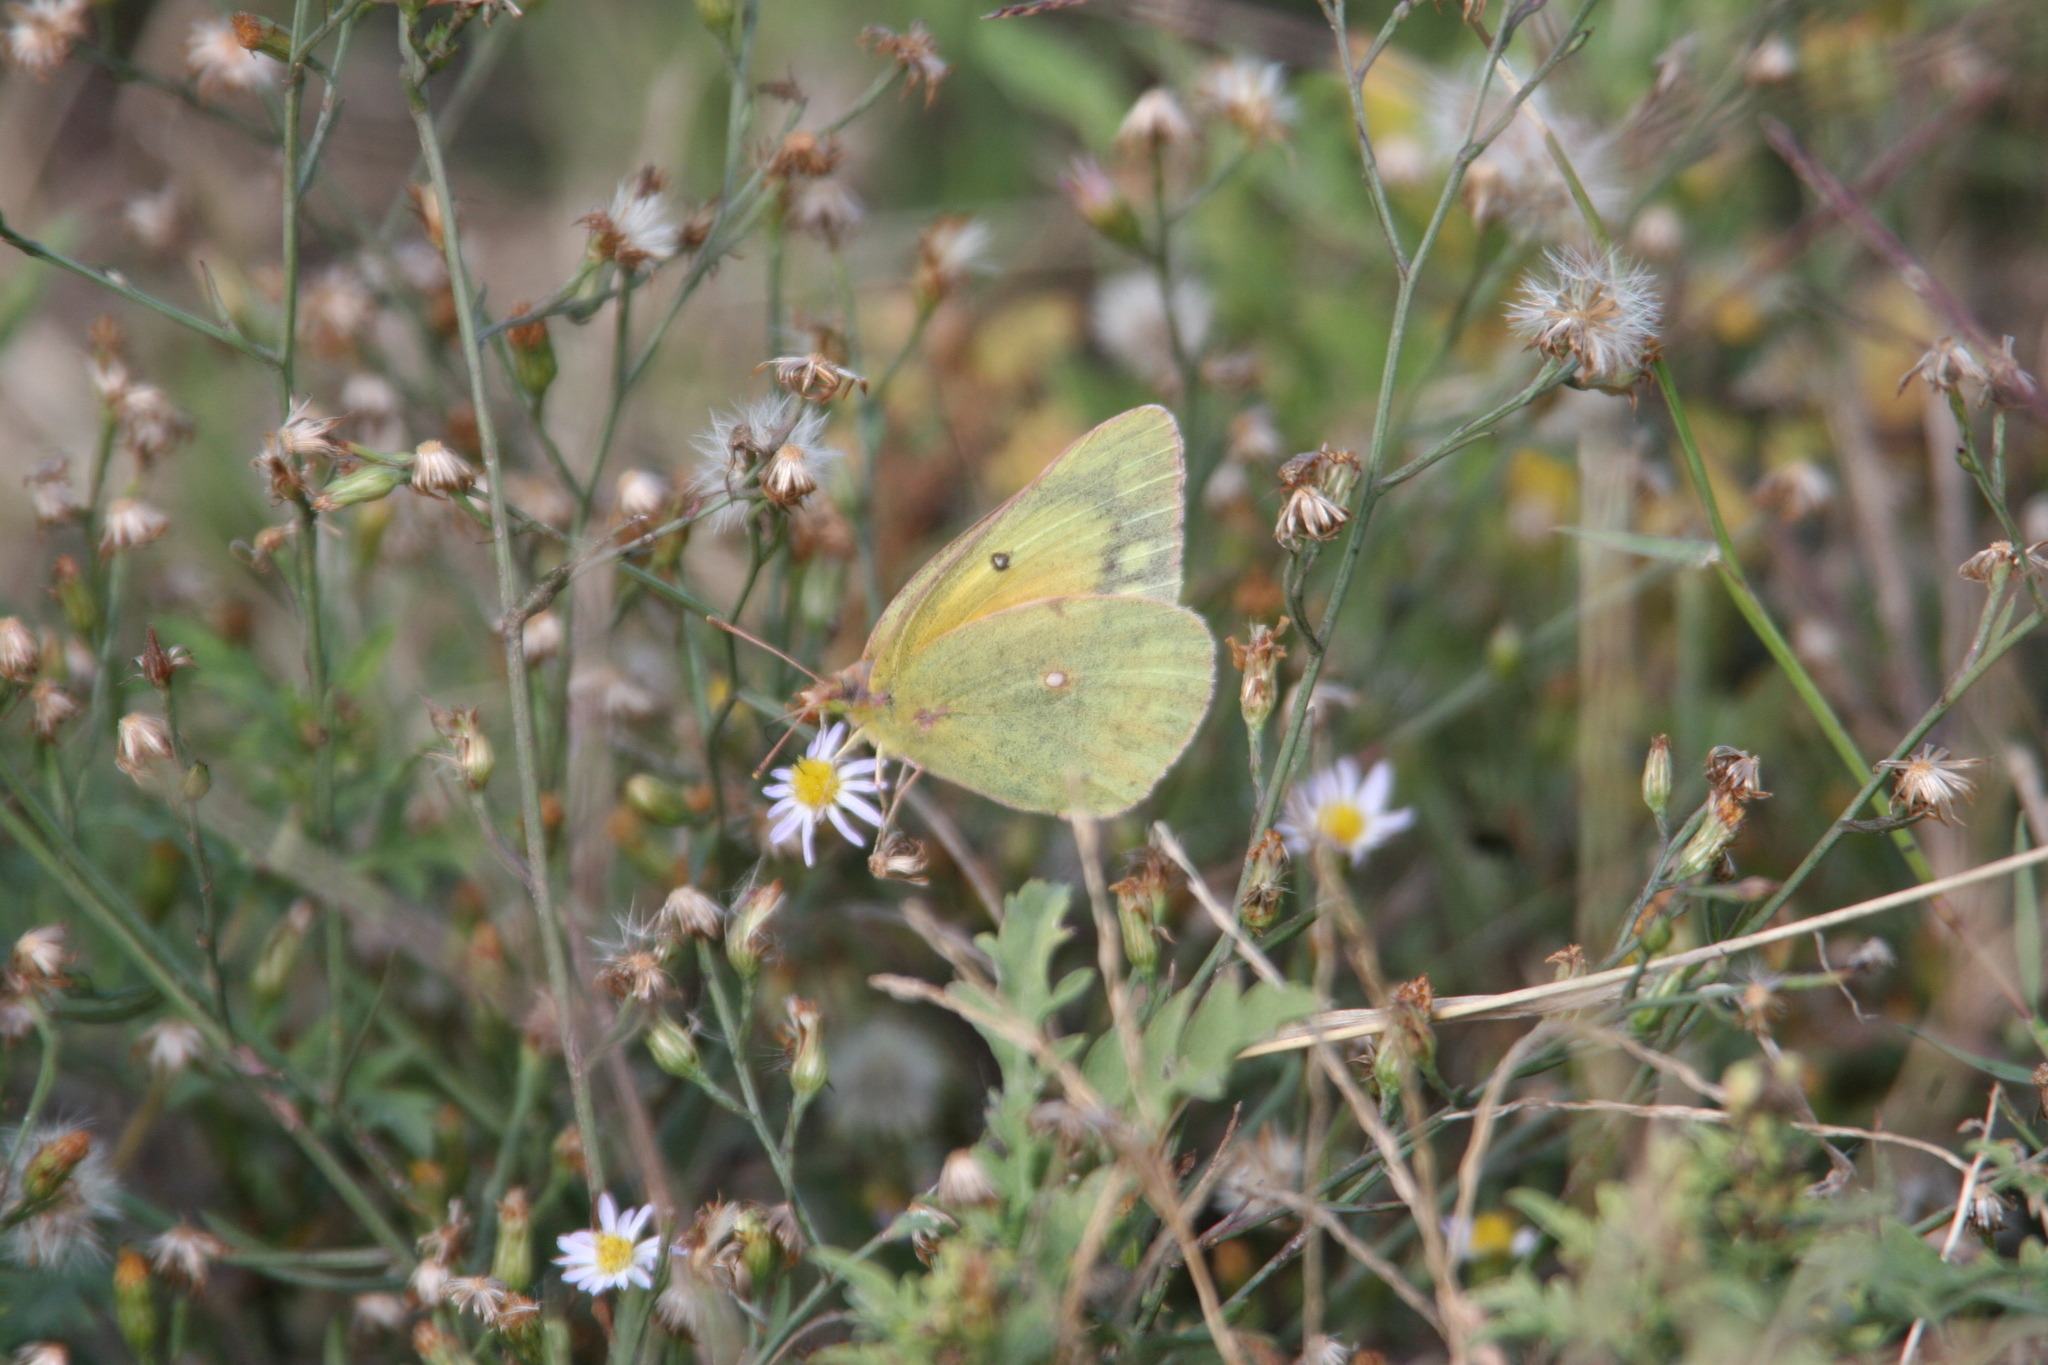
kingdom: Animalia
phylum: Arthropoda
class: Insecta
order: Lepidoptera
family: Pieridae
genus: Colias
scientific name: Colias eurytheme
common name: Alfalfa butterfly
